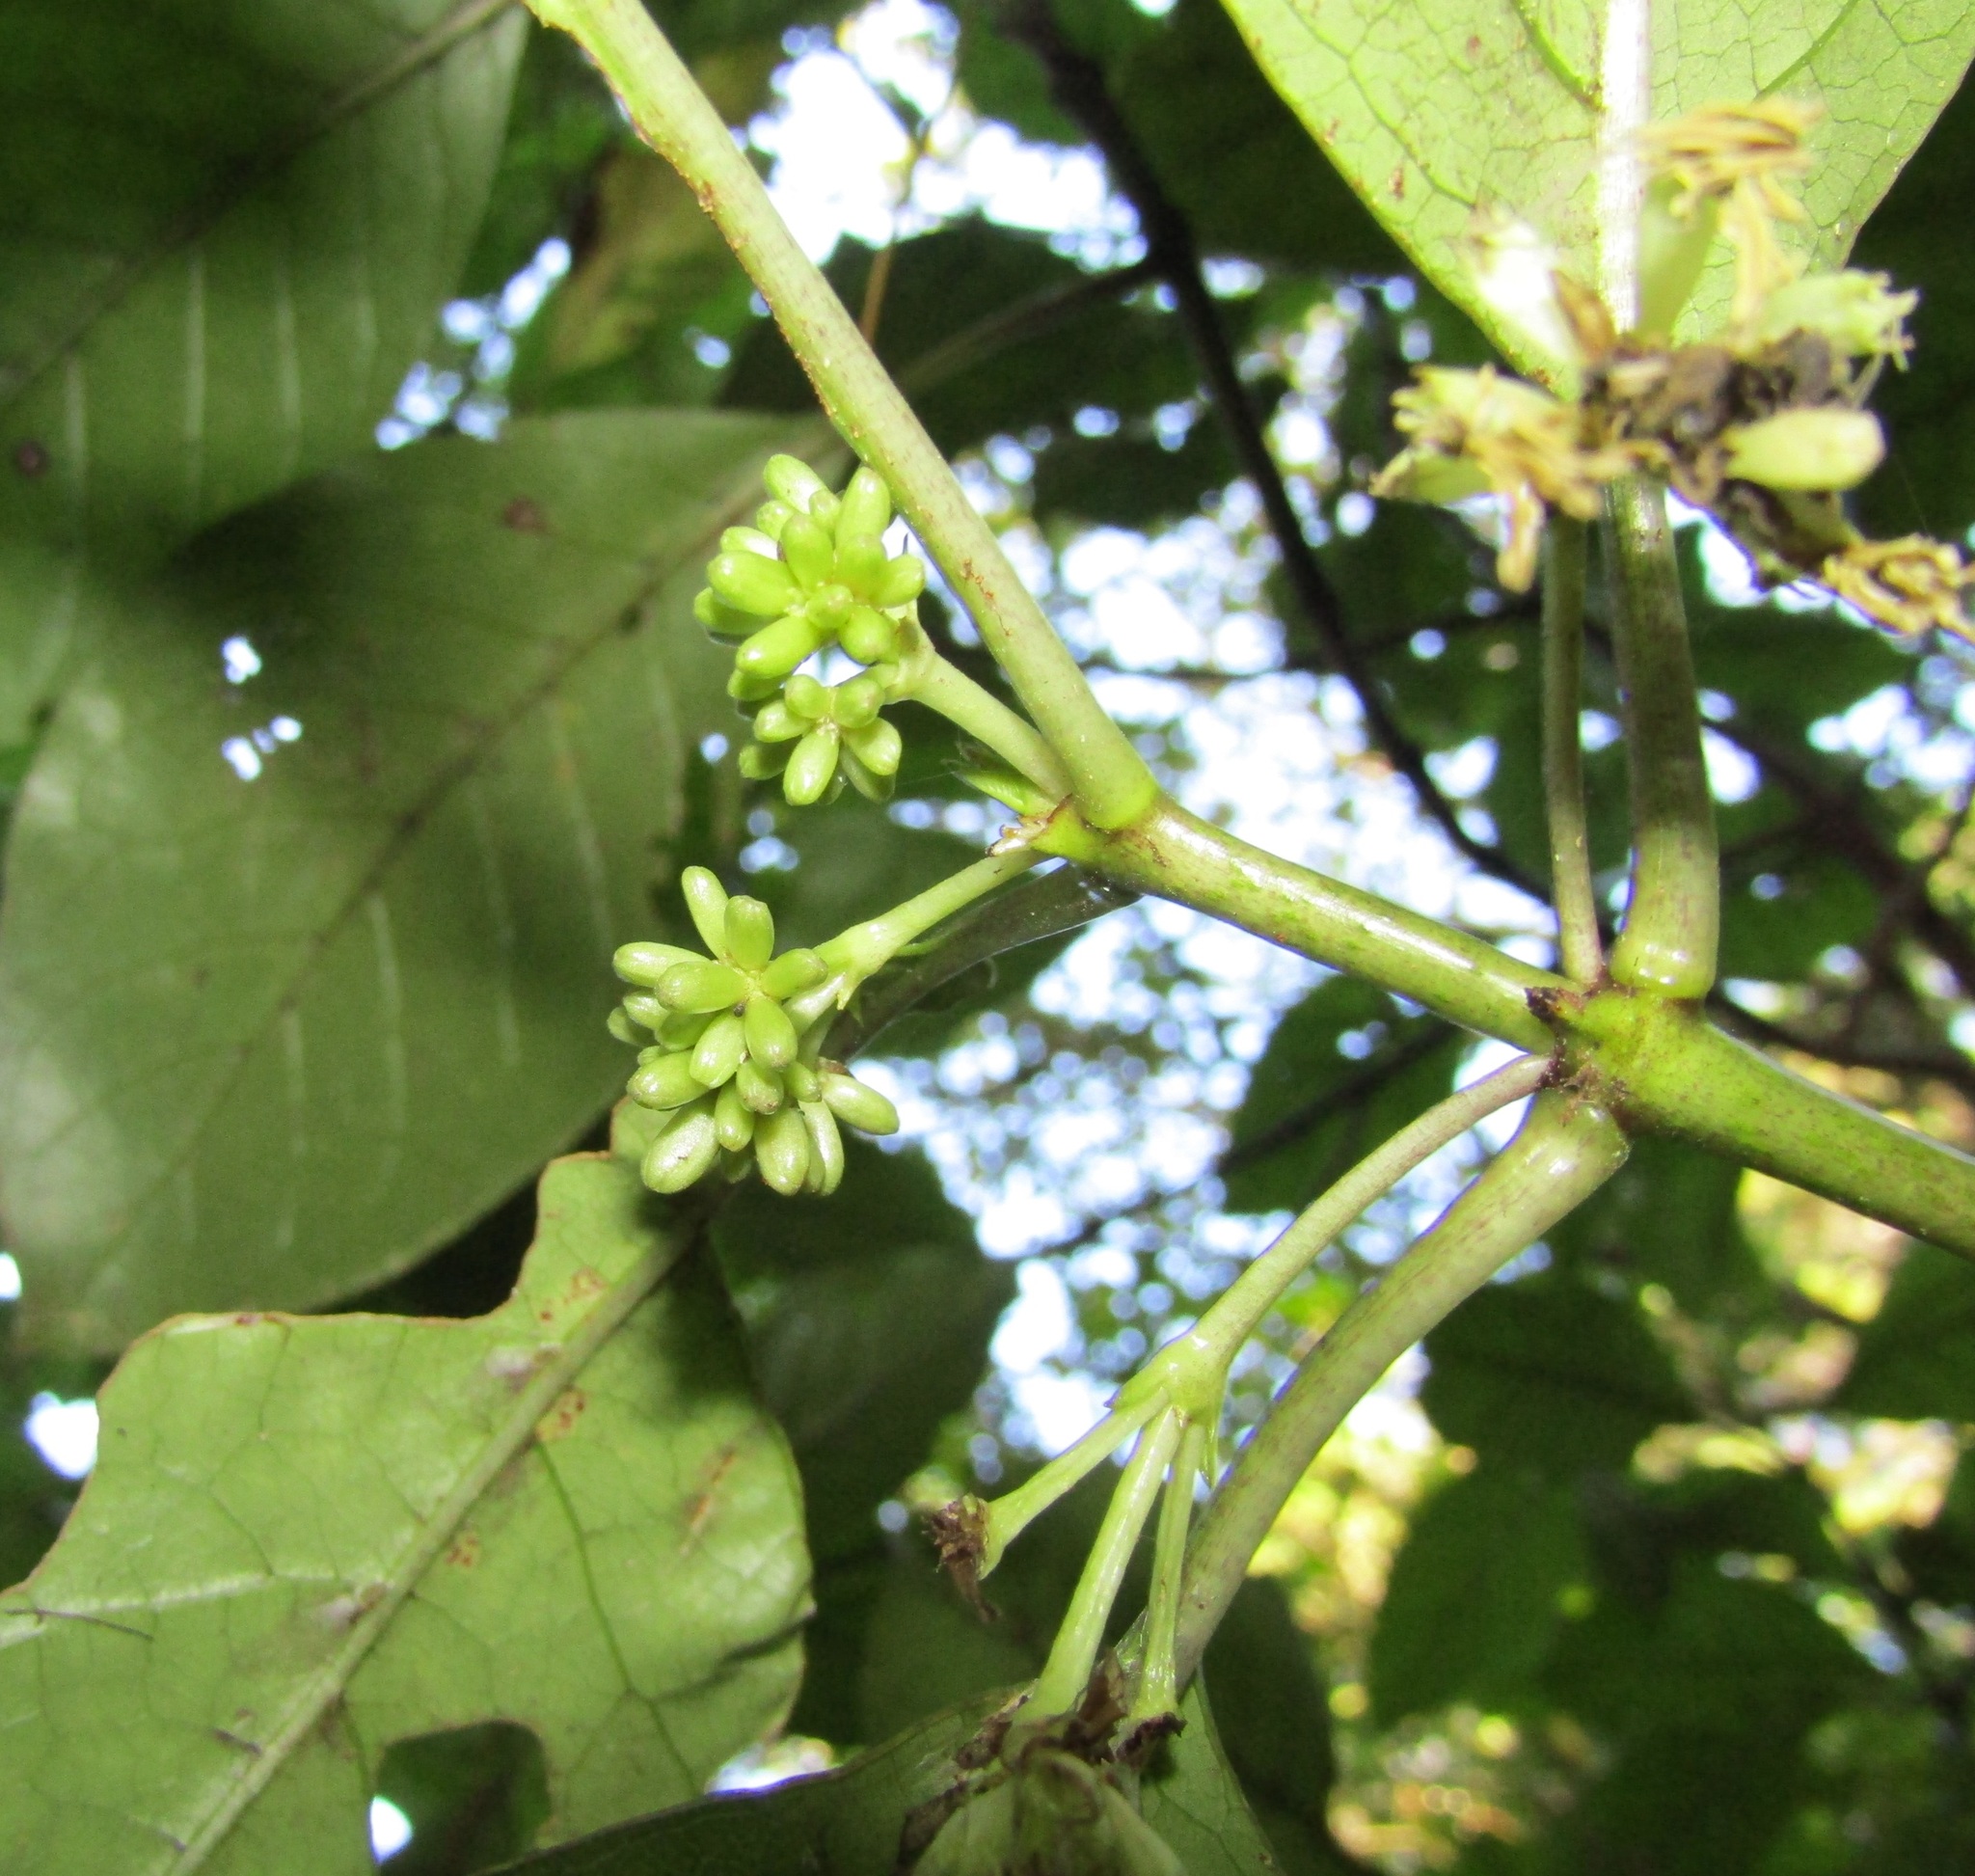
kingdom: Plantae
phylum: Tracheophyta
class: Magnoliopsida
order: Gentianales
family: Rubiaceae
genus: Coprosma
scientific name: Coprosma autumnalis
